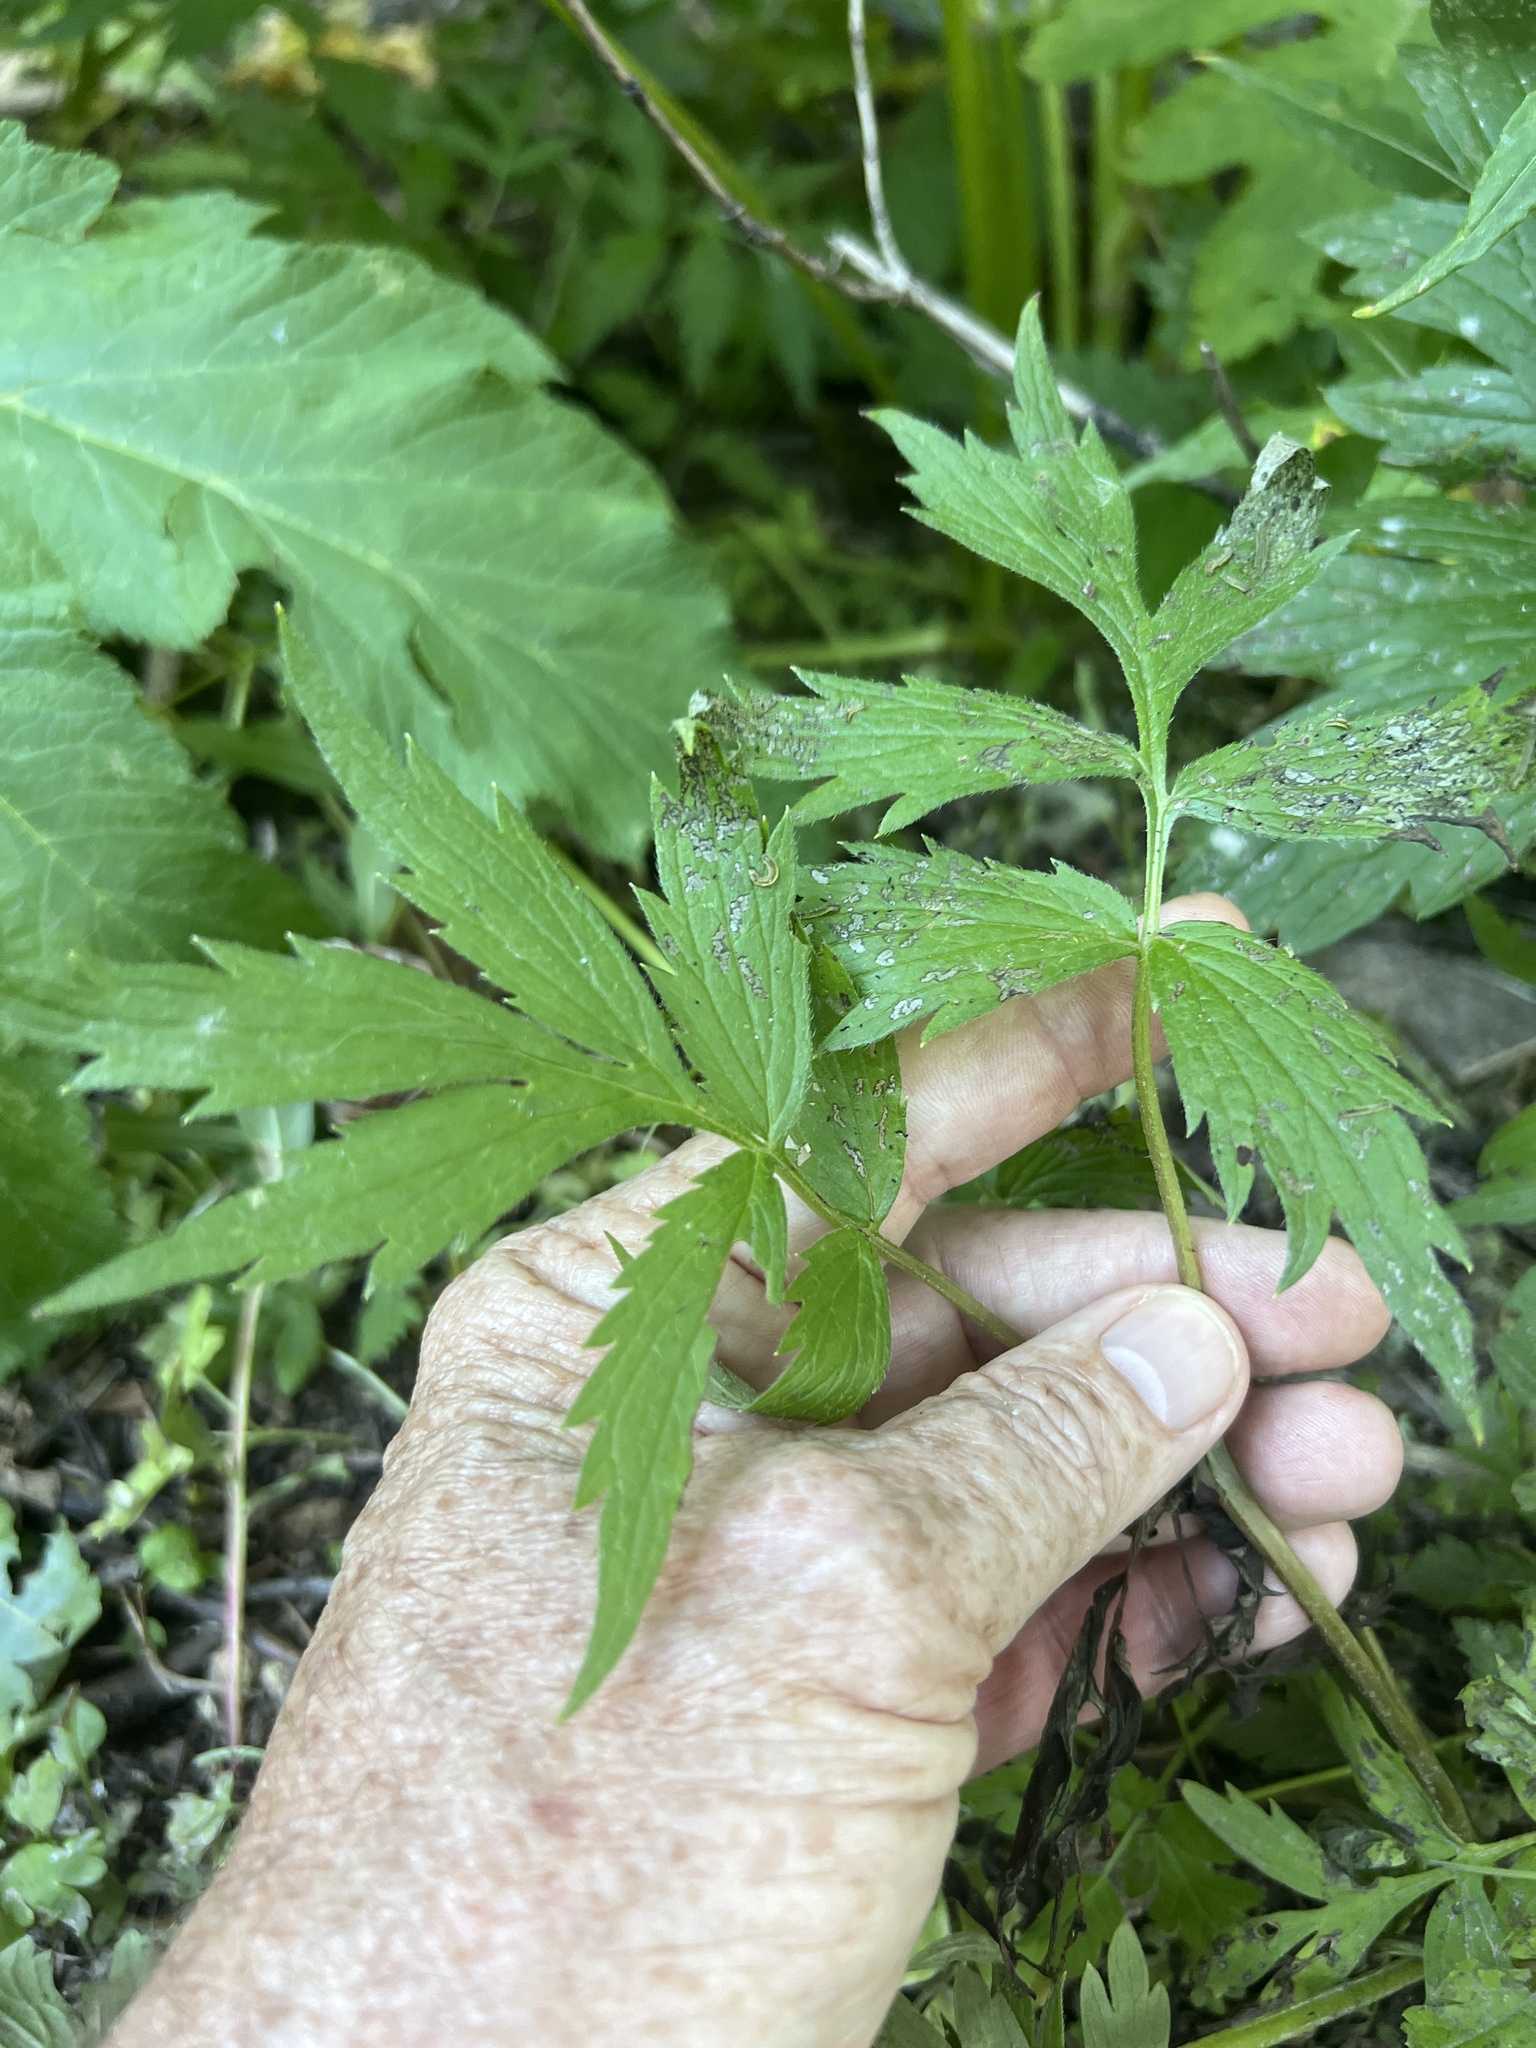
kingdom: Plantae
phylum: Tracheophyta
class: Magnoliopsida
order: Boraginales
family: Hydrophyllaceae
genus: Hydrophyllum
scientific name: Hydrophyllum fendleri
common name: Fendler's waterleaf
